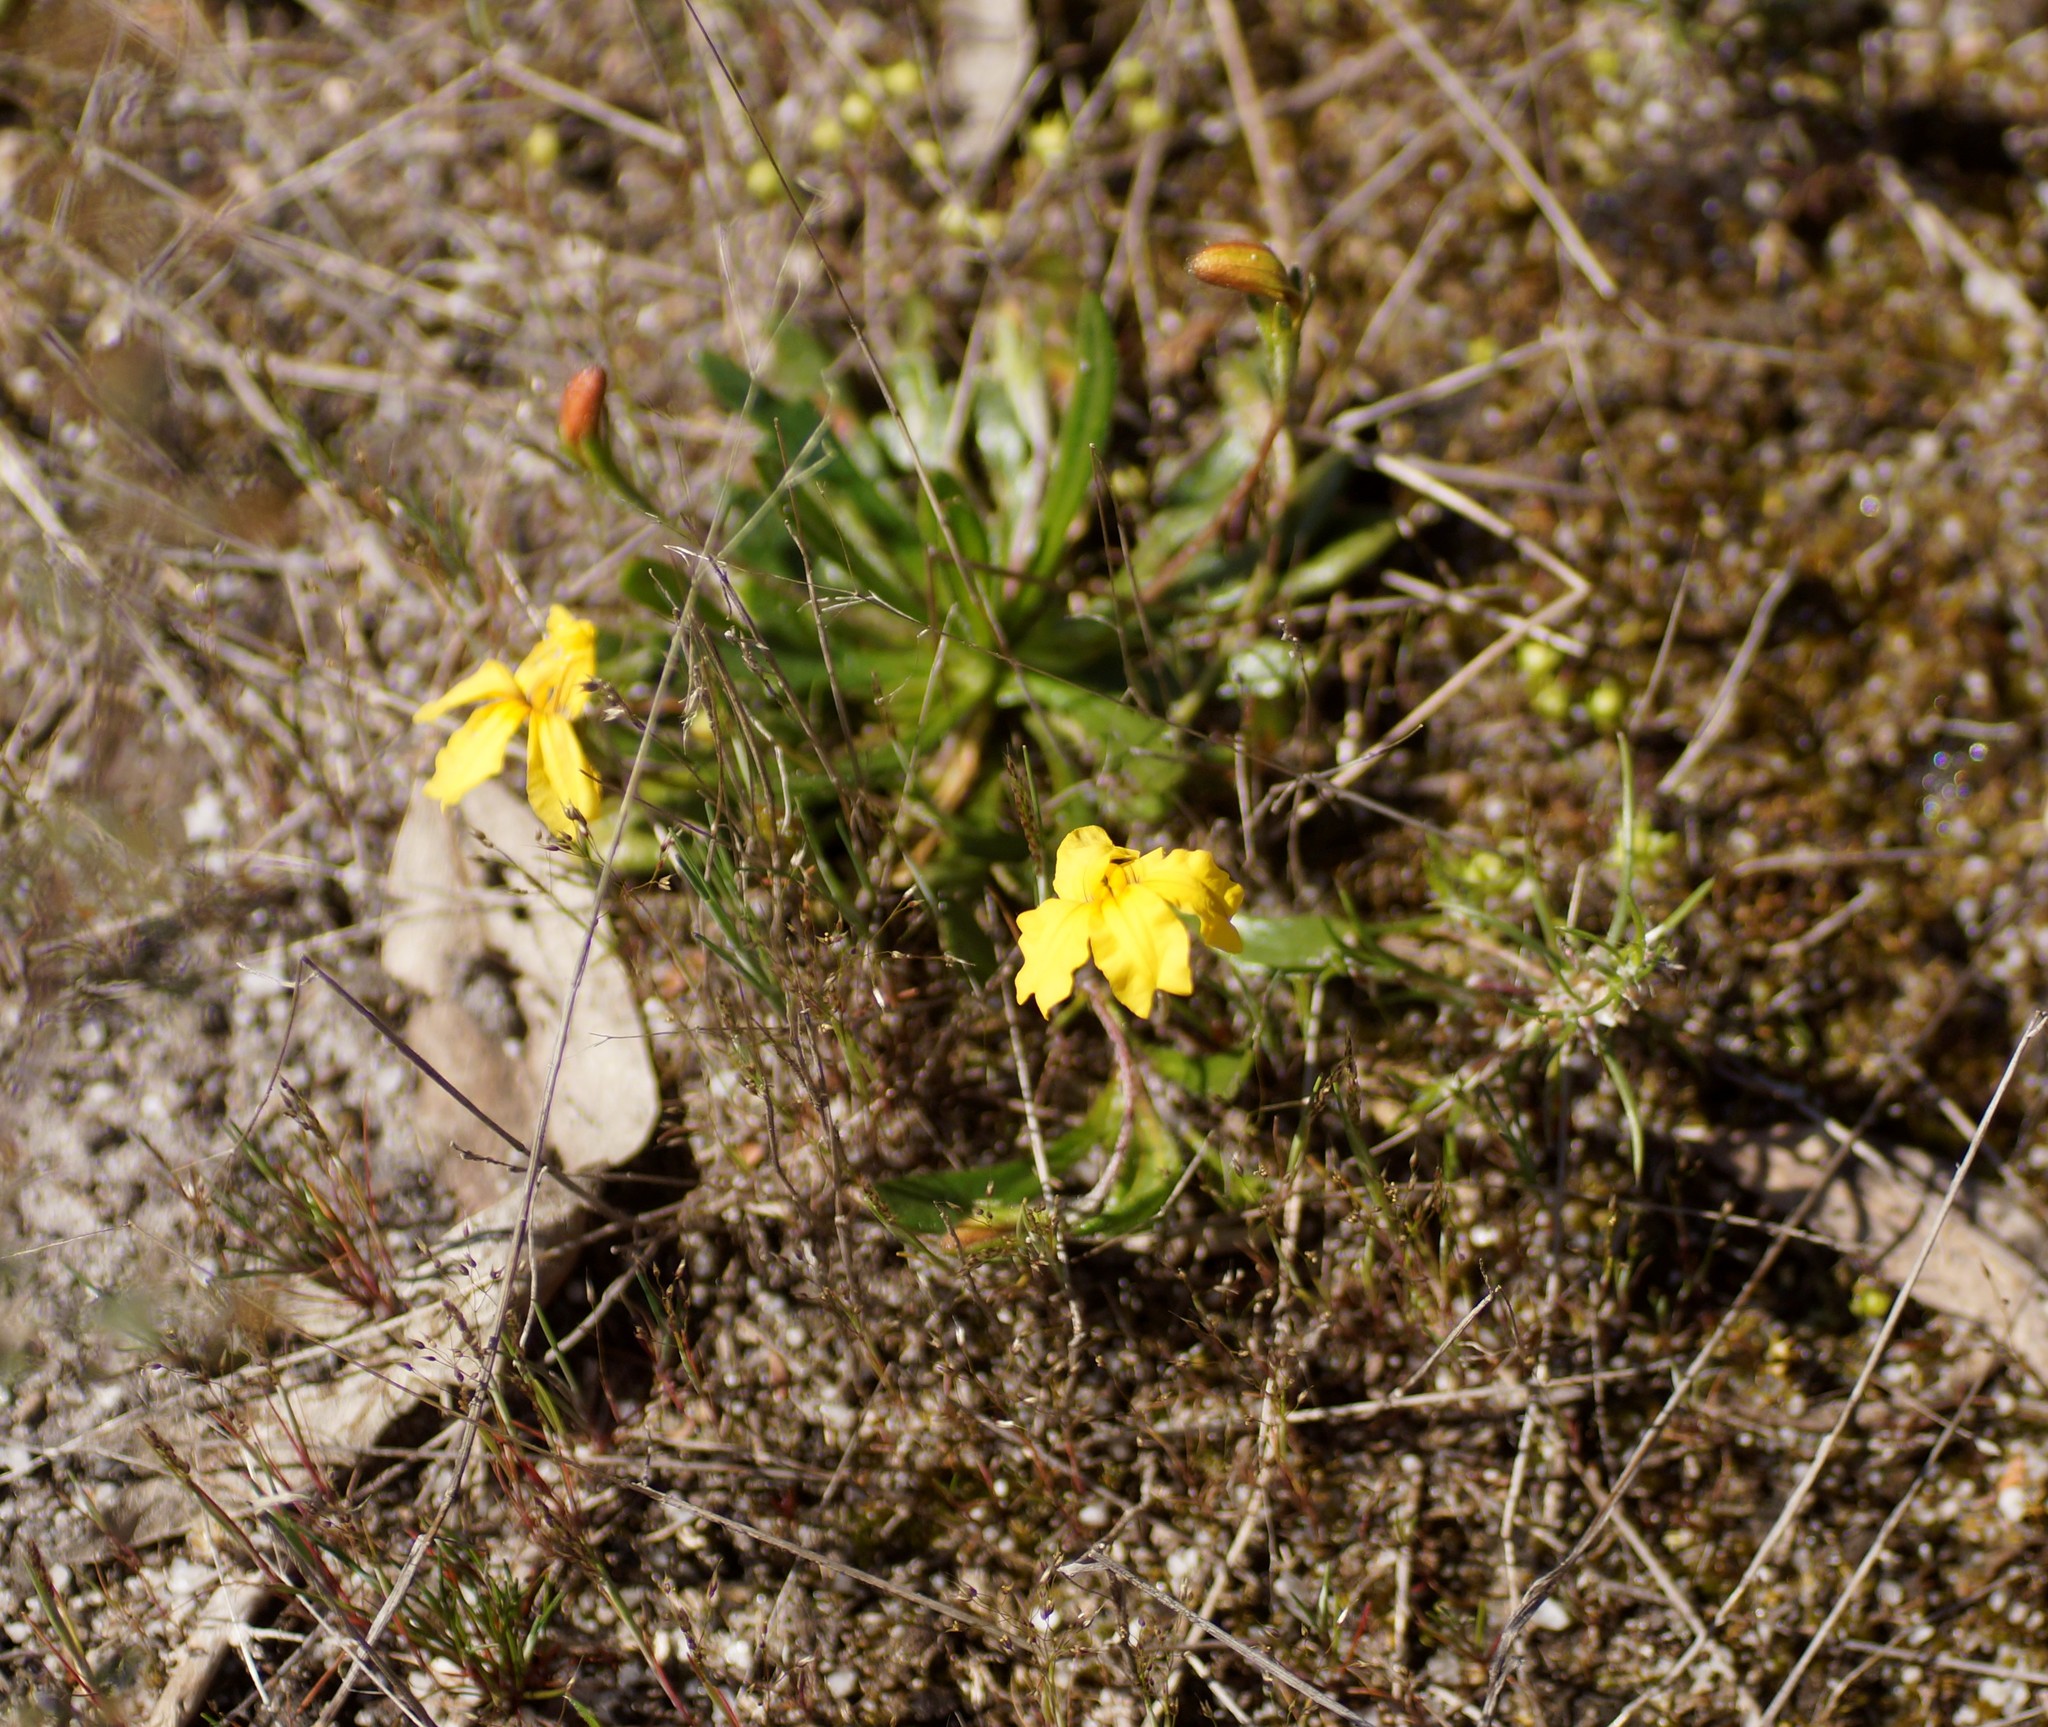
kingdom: Plantae
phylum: Tracheophyta
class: Magnoliopsida
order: Asterales
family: Goodeniaceae
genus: Goodenia
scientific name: Goodenia geniculata
